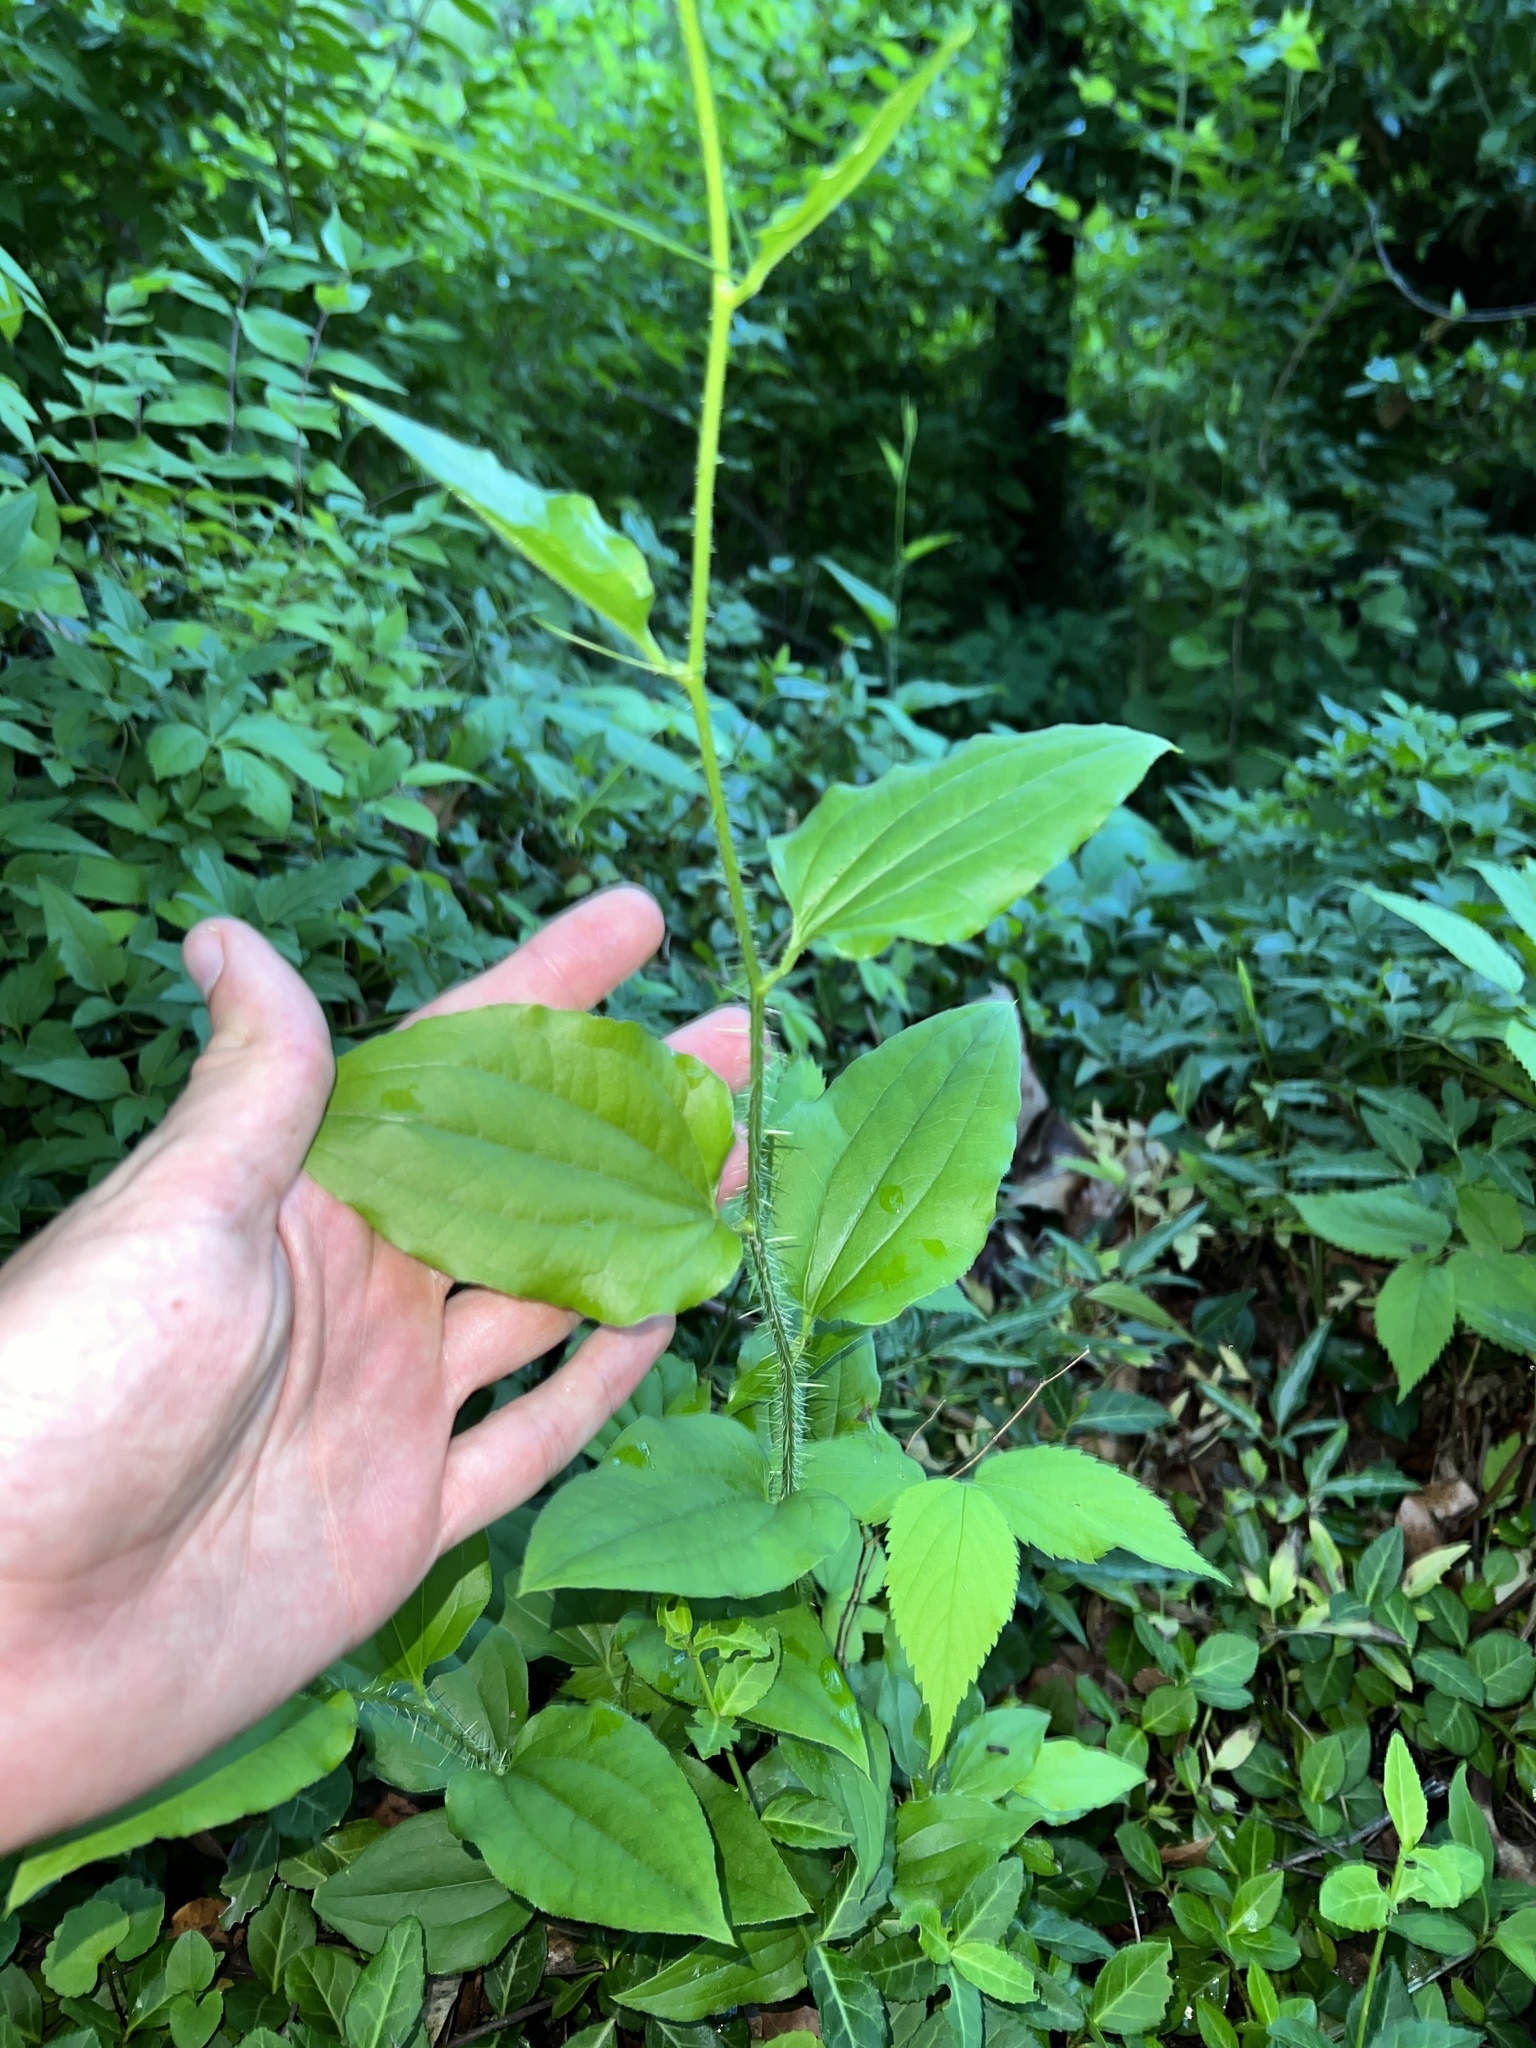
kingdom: Plantae
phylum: Tracheophyta
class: Liliopsida
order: Liliales
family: Smilacaceae
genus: Smilax
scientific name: Smilax tamnoides
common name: Hellfetter
